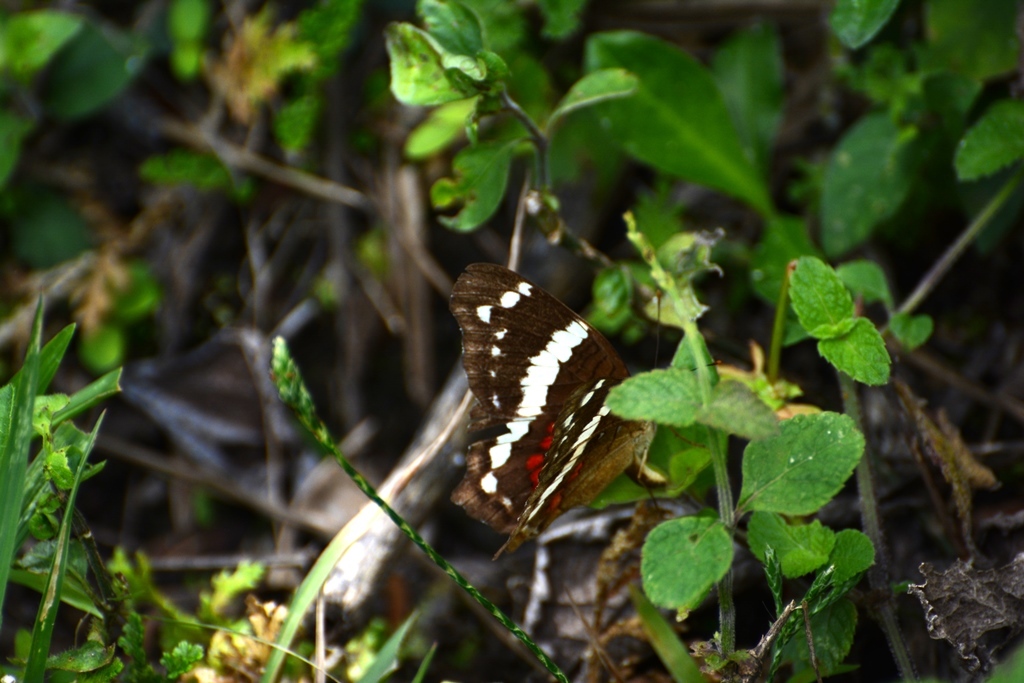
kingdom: Animalia
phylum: Arthropoda
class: Insecta
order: Lepidoptera
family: Nymphalidae
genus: Anartia
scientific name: Anartia fatima
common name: Banded peacock
